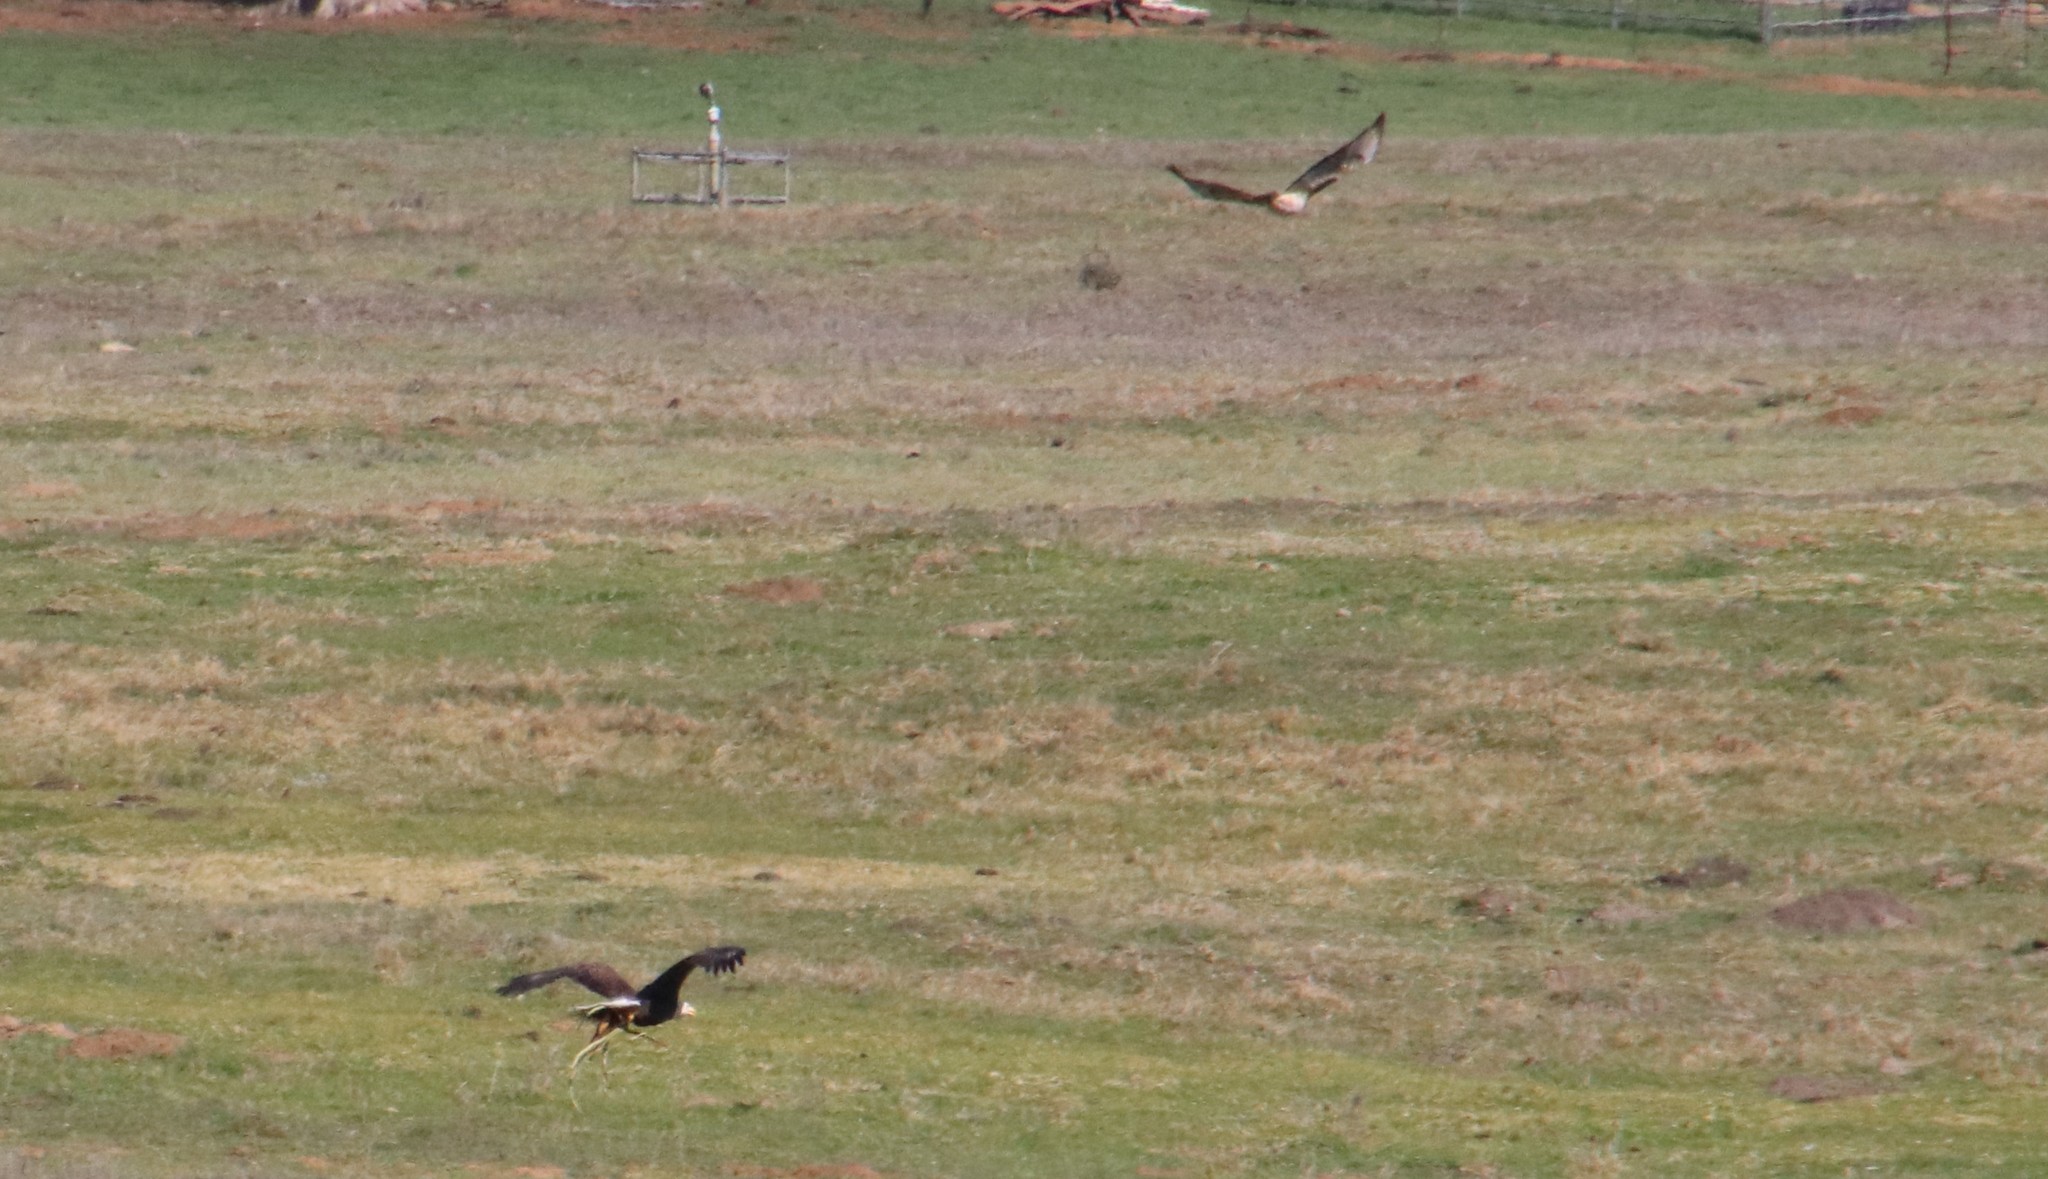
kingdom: Animalia
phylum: Chordata
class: Aves
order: Accipitriformes
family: Accipitridae
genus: Buteo
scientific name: Buteo jamaicensis
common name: Red-tailed hawk
